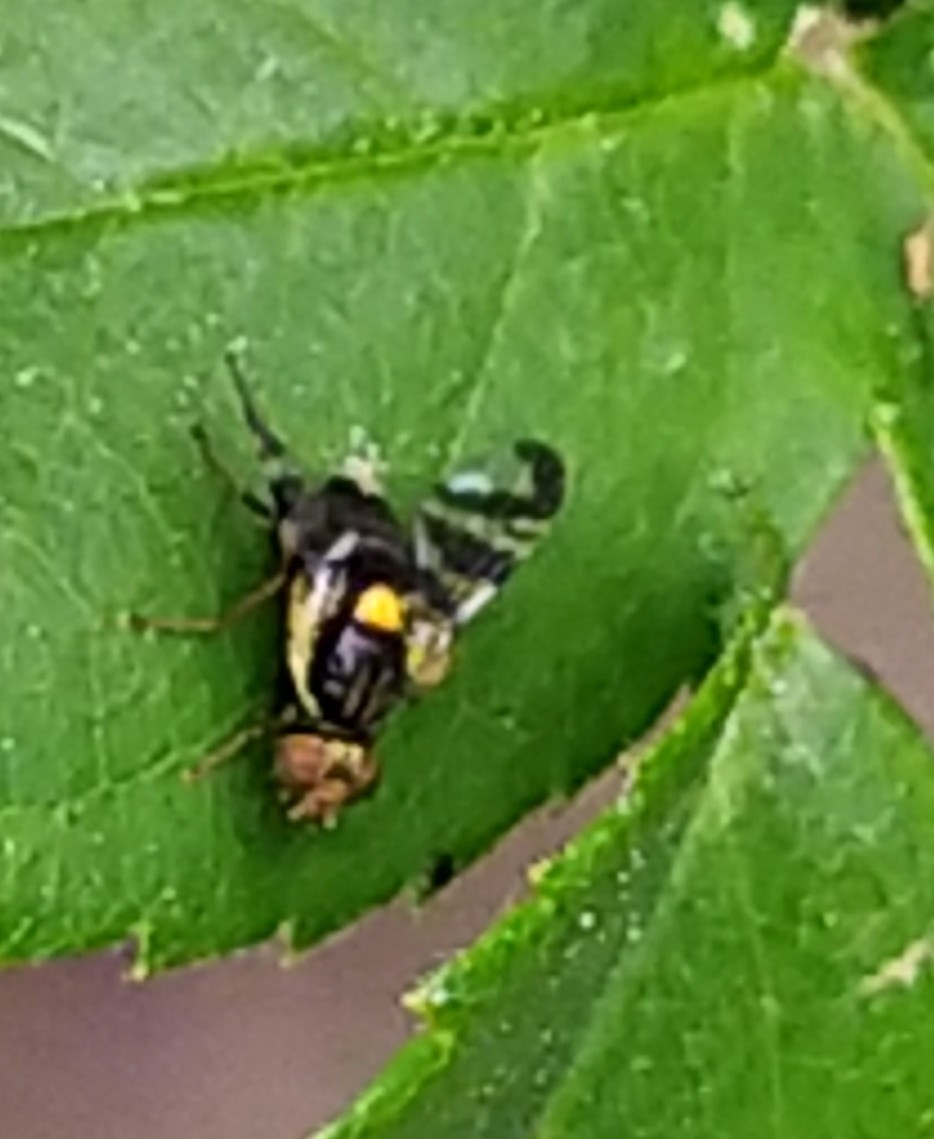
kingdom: Animalia
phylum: Arthropoda
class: Insecta
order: Diptera
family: Tephritidae
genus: Rhagoletis
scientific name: Rhagoletis cerasi
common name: European cherry fruit fly
